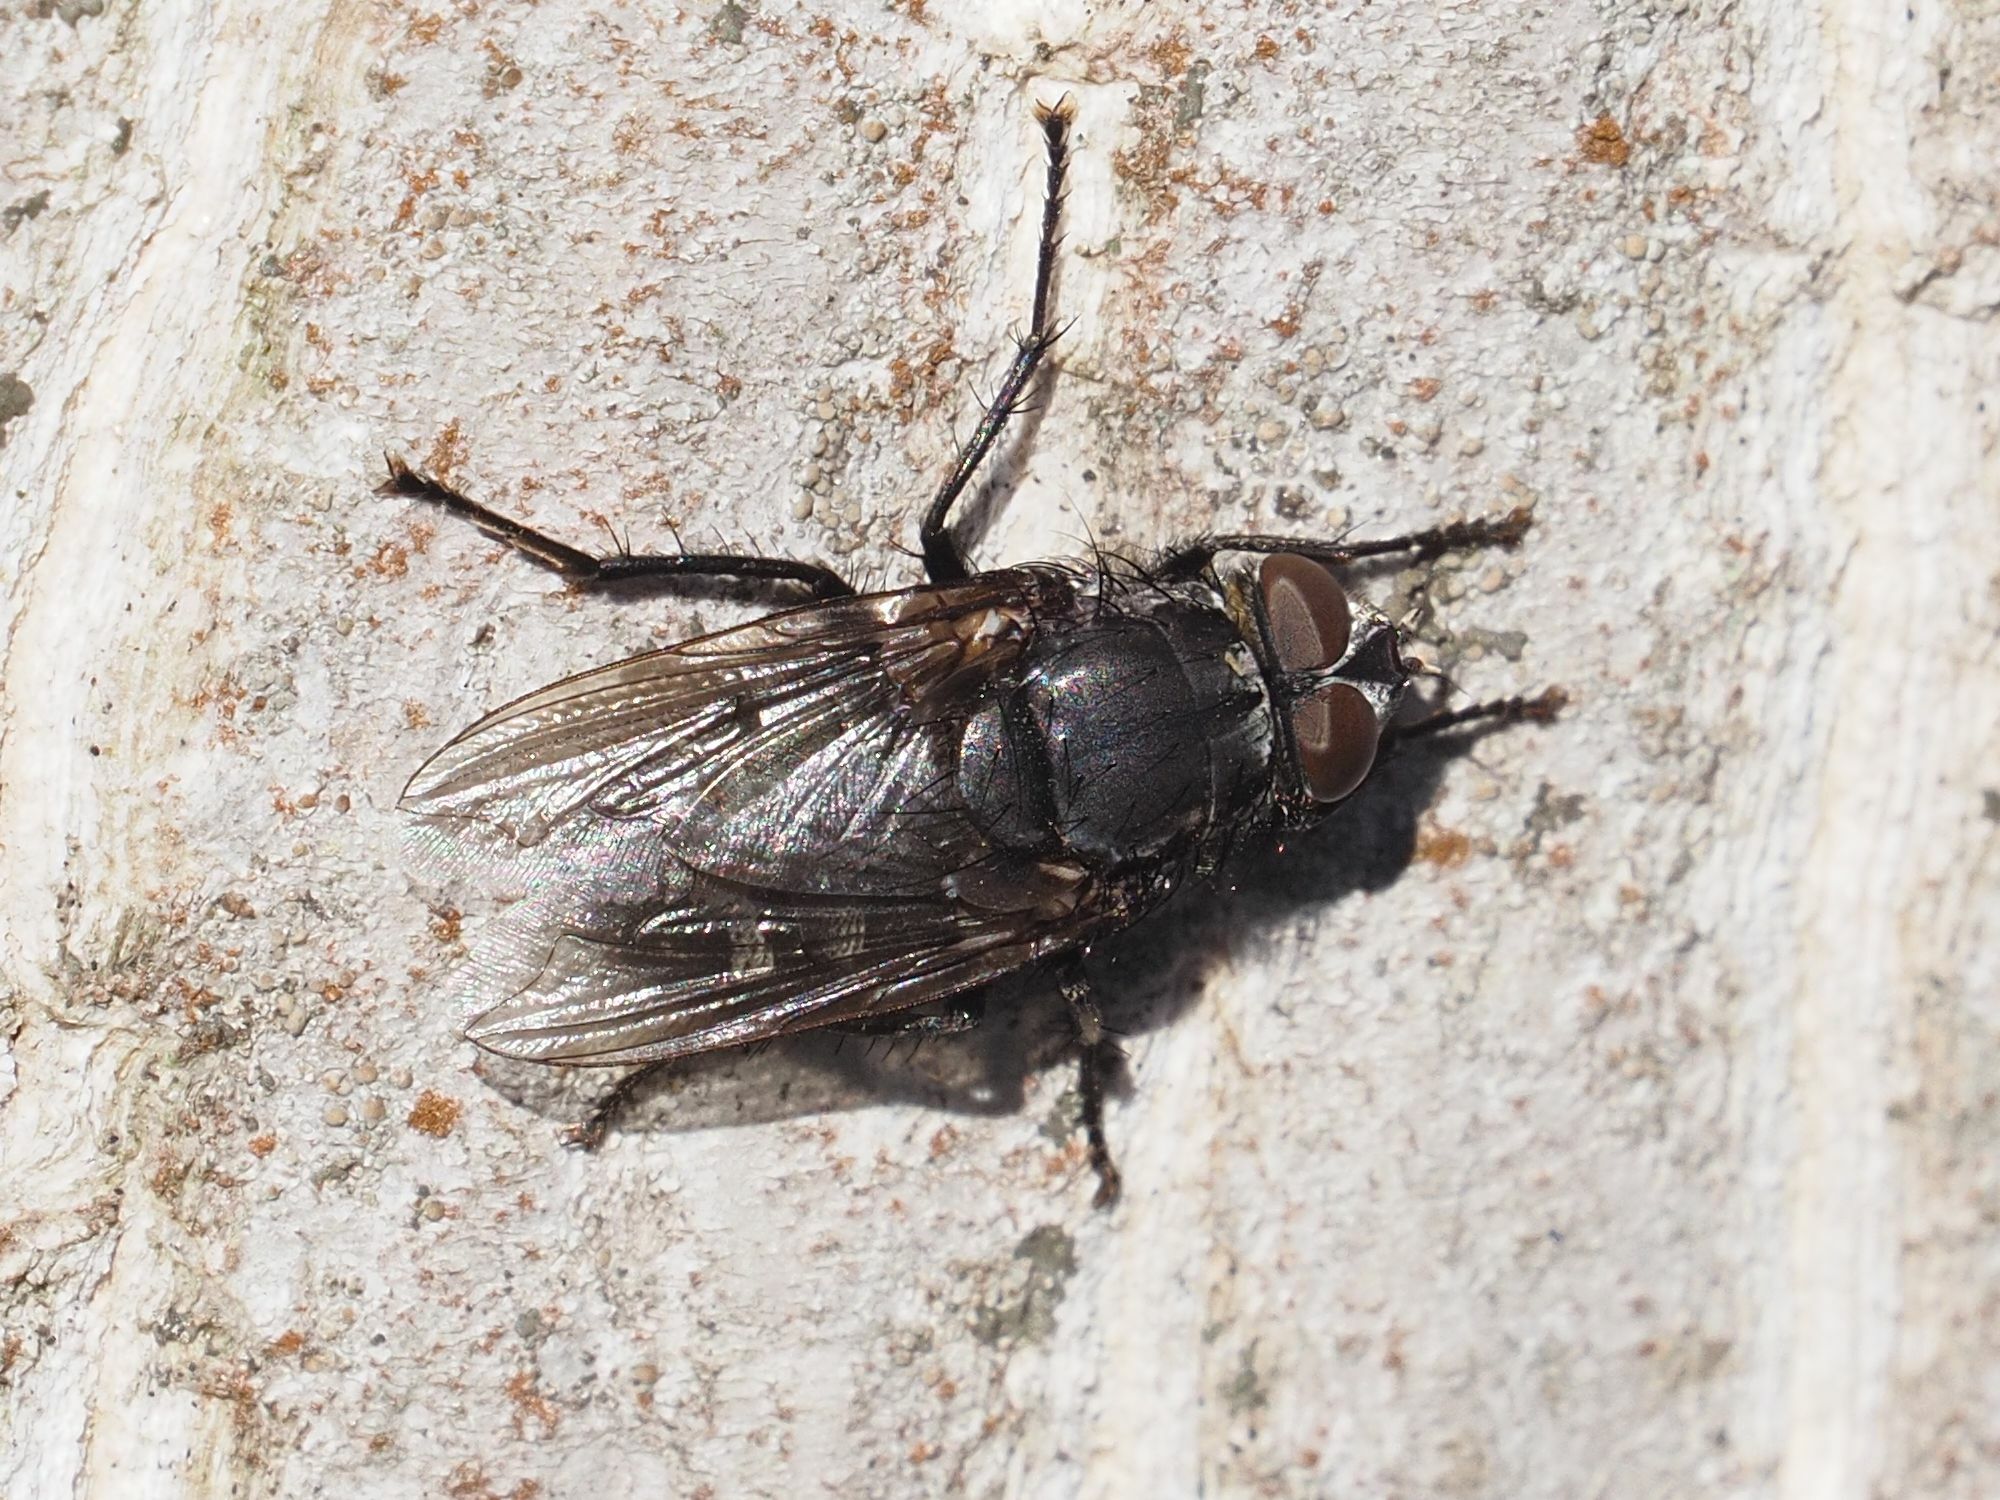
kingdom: Animalia
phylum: Arthropoda
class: Insecta
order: Diptera
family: Polleniidae
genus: Pollenia
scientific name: Pollenia vagabunda
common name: Vagabund cluster fly
